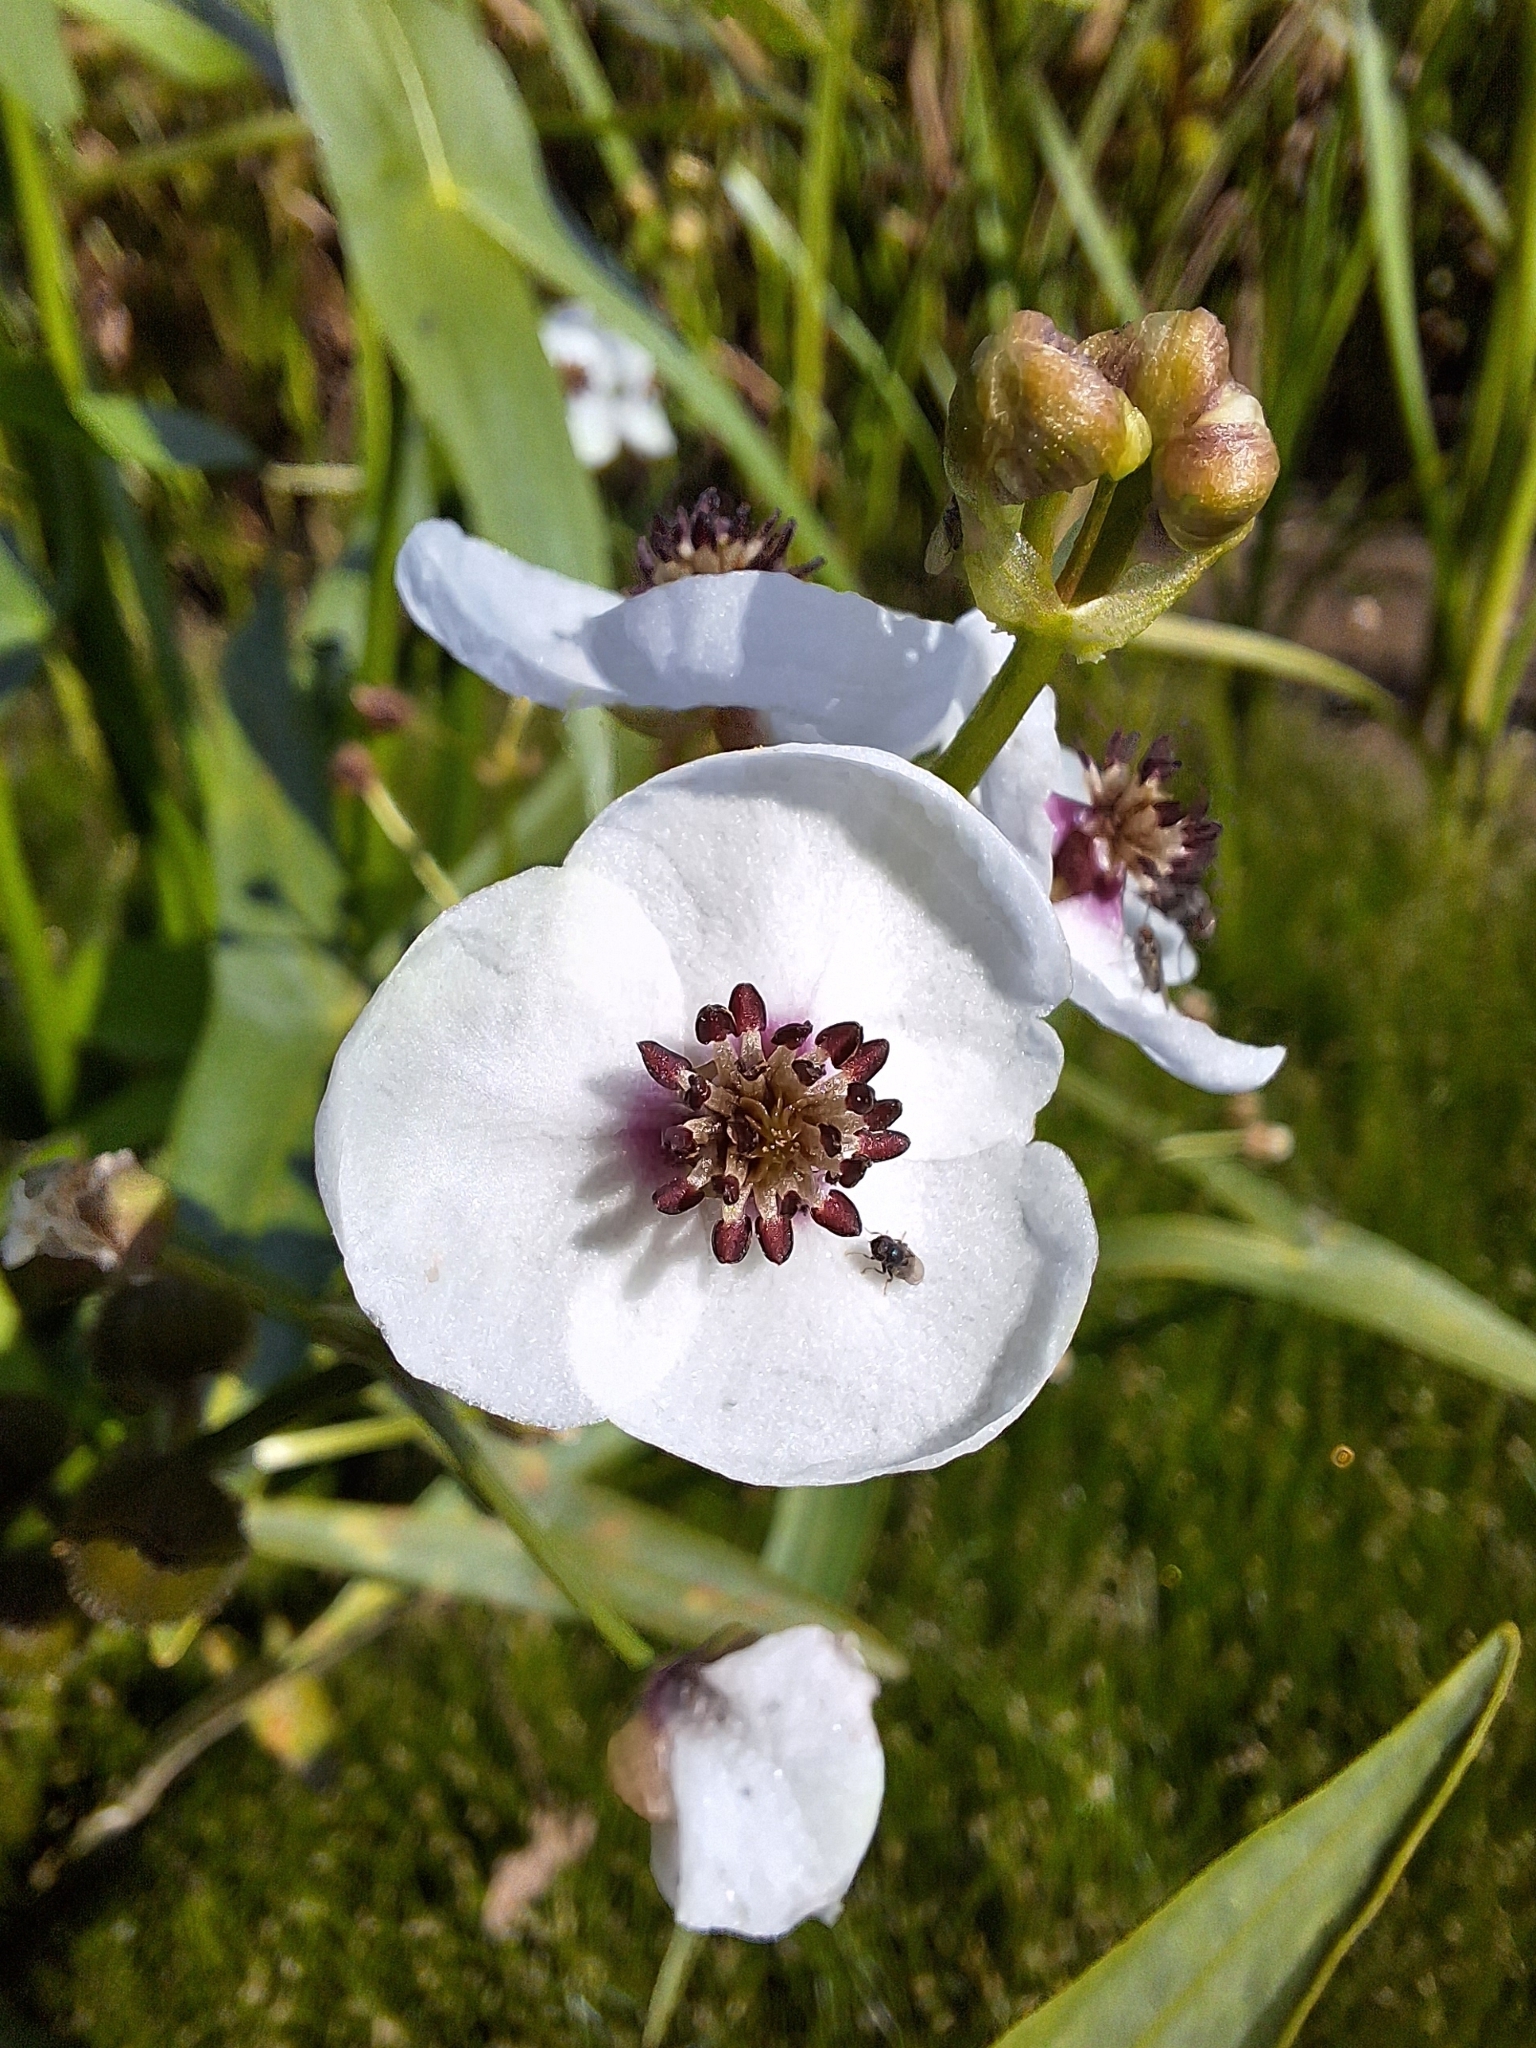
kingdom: Plantae
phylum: Tracheophyta
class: Liliopsida
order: Alismatales
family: Alismataceae
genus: Sagittaria
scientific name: Sagittaria sagittifolia
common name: Arrowhead
